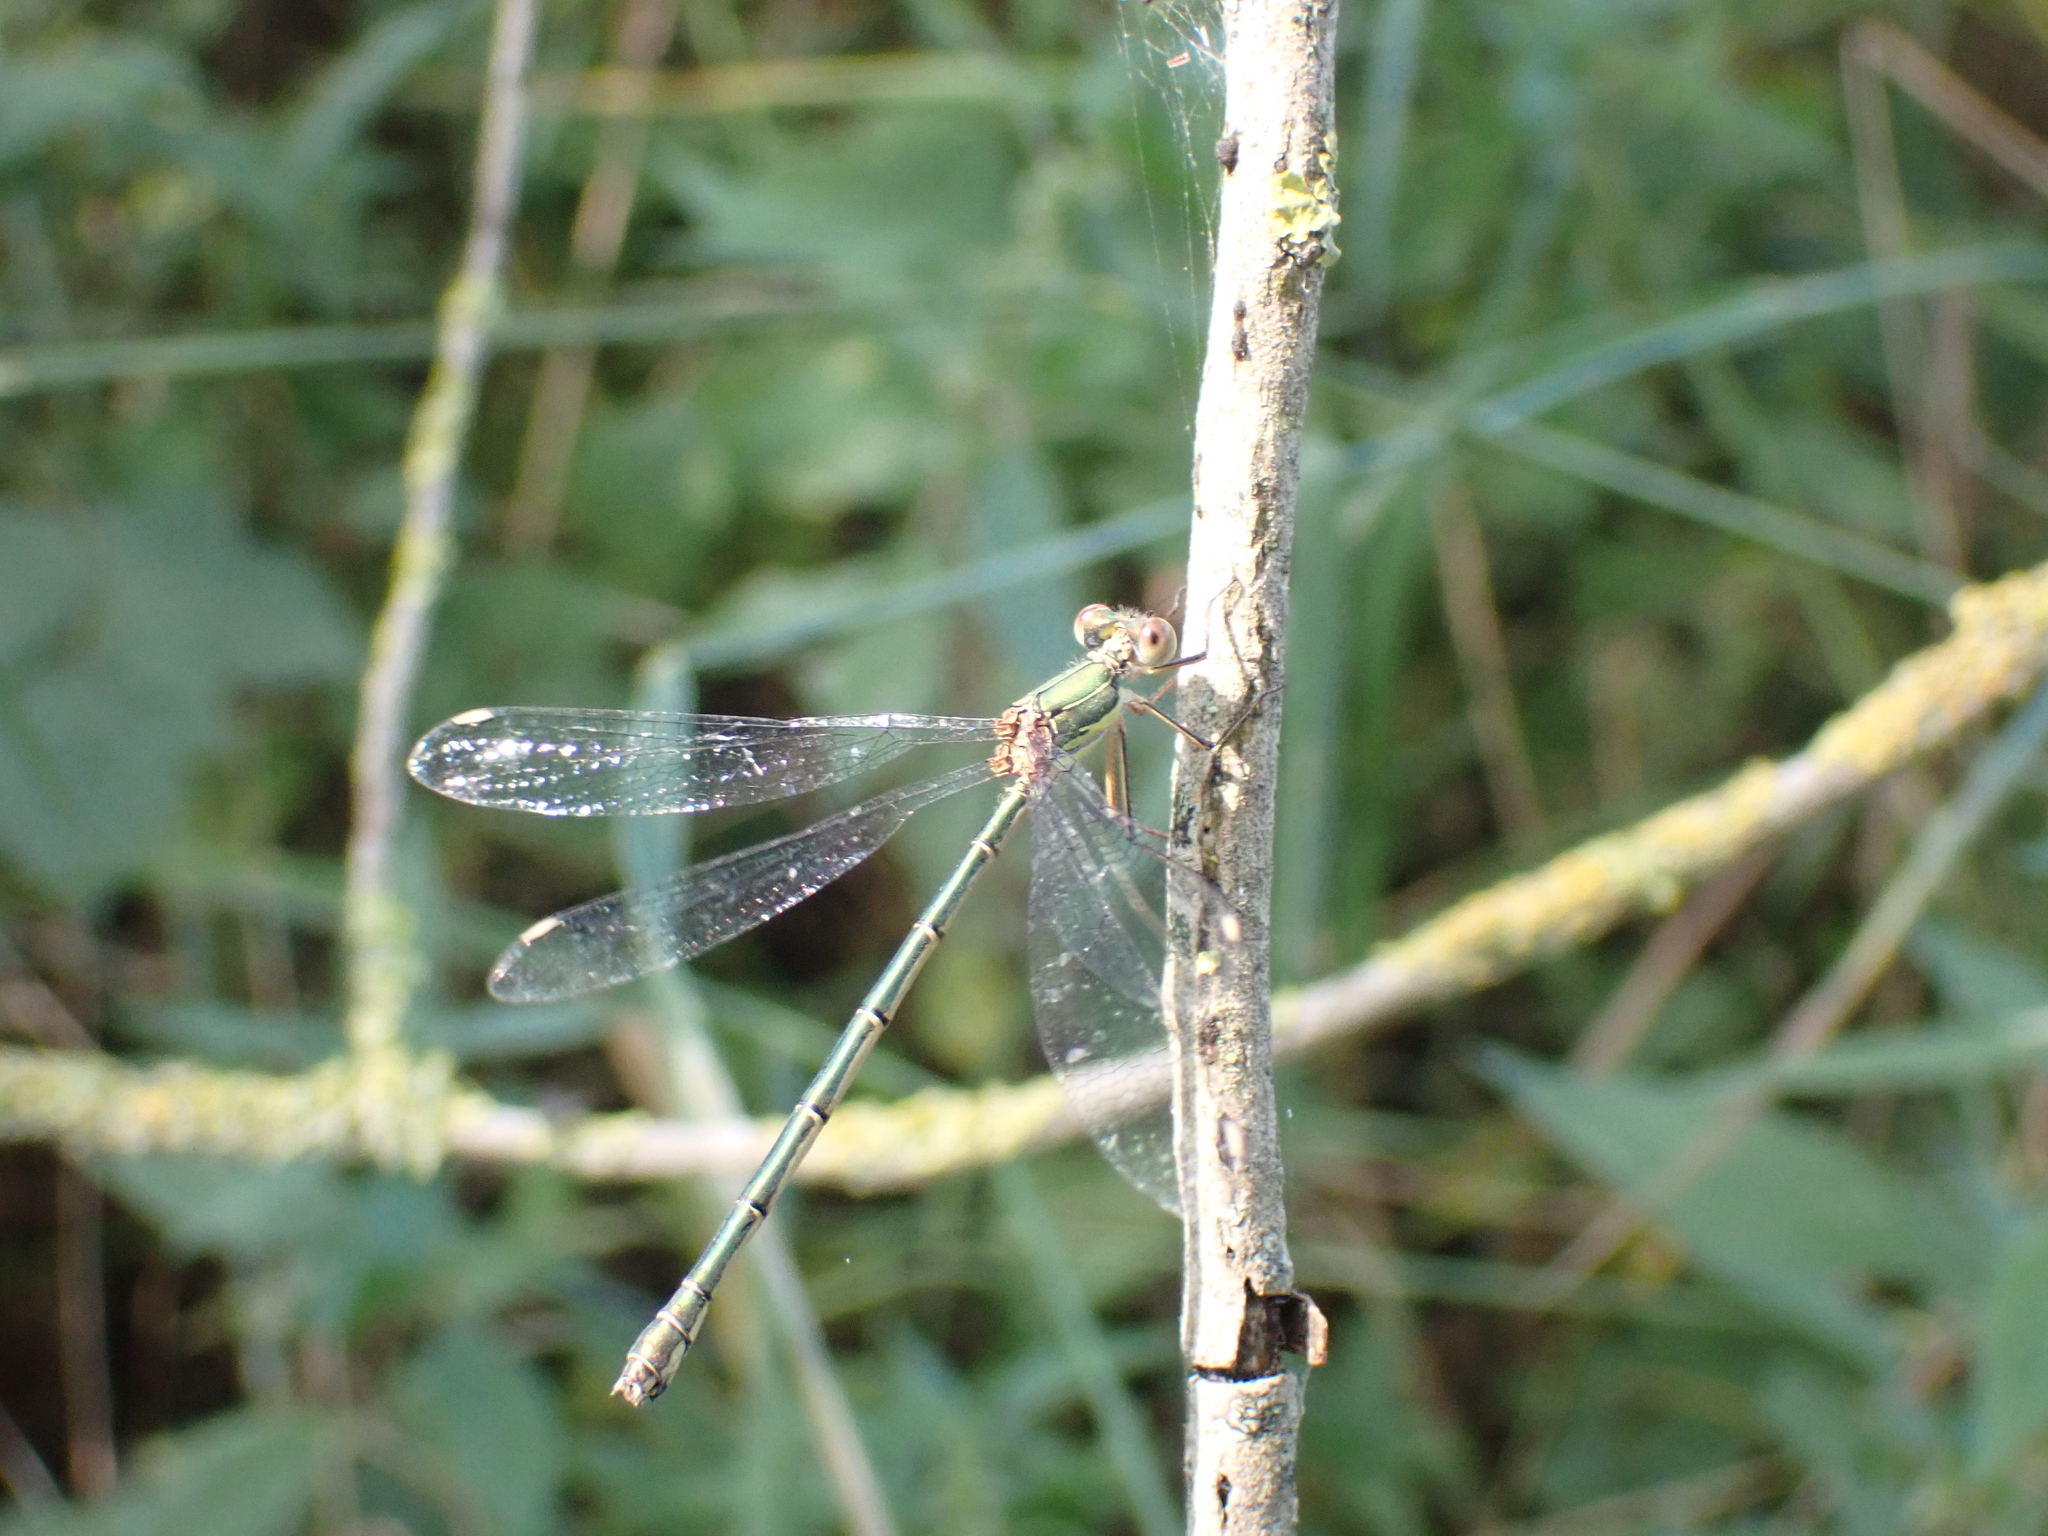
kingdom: Animalia
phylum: Arthropoda
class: Insecta
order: Odonata
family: Lestidae
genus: Chalcolestes
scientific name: Chalcolestes viridis
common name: Green emerald damselfly
